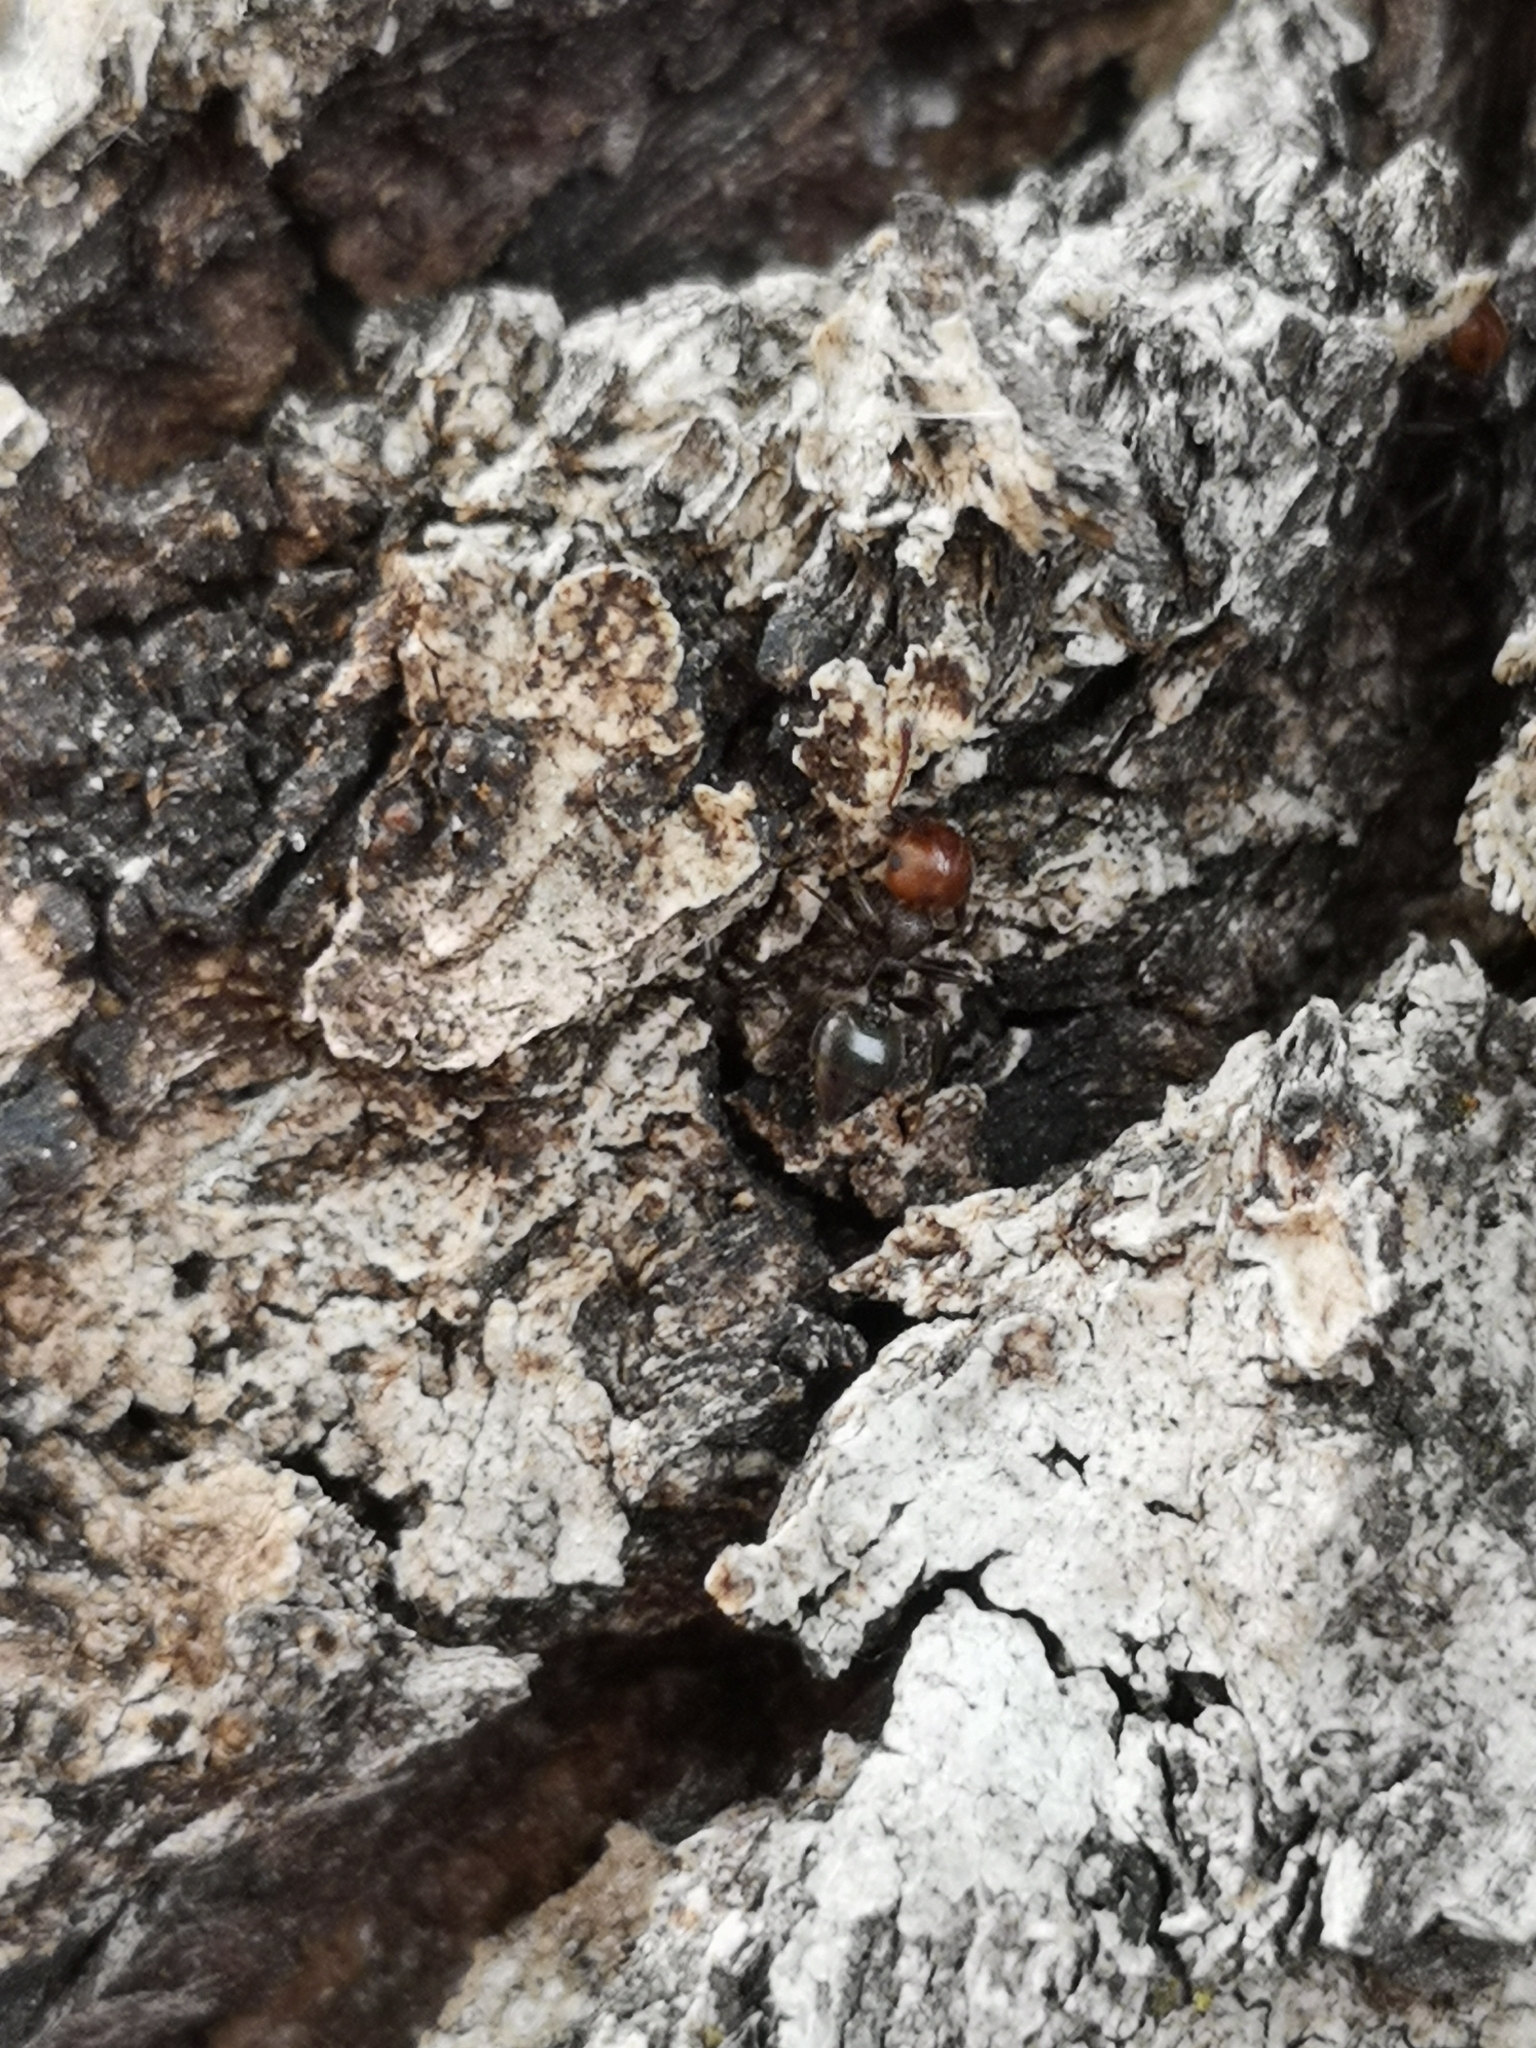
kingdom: Animalia
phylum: Arthropoda
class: Insecta
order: Hymenoptera
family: Formicidae
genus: Crematogaster
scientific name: Crematogaster scutellaris
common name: Fourmi du liège
